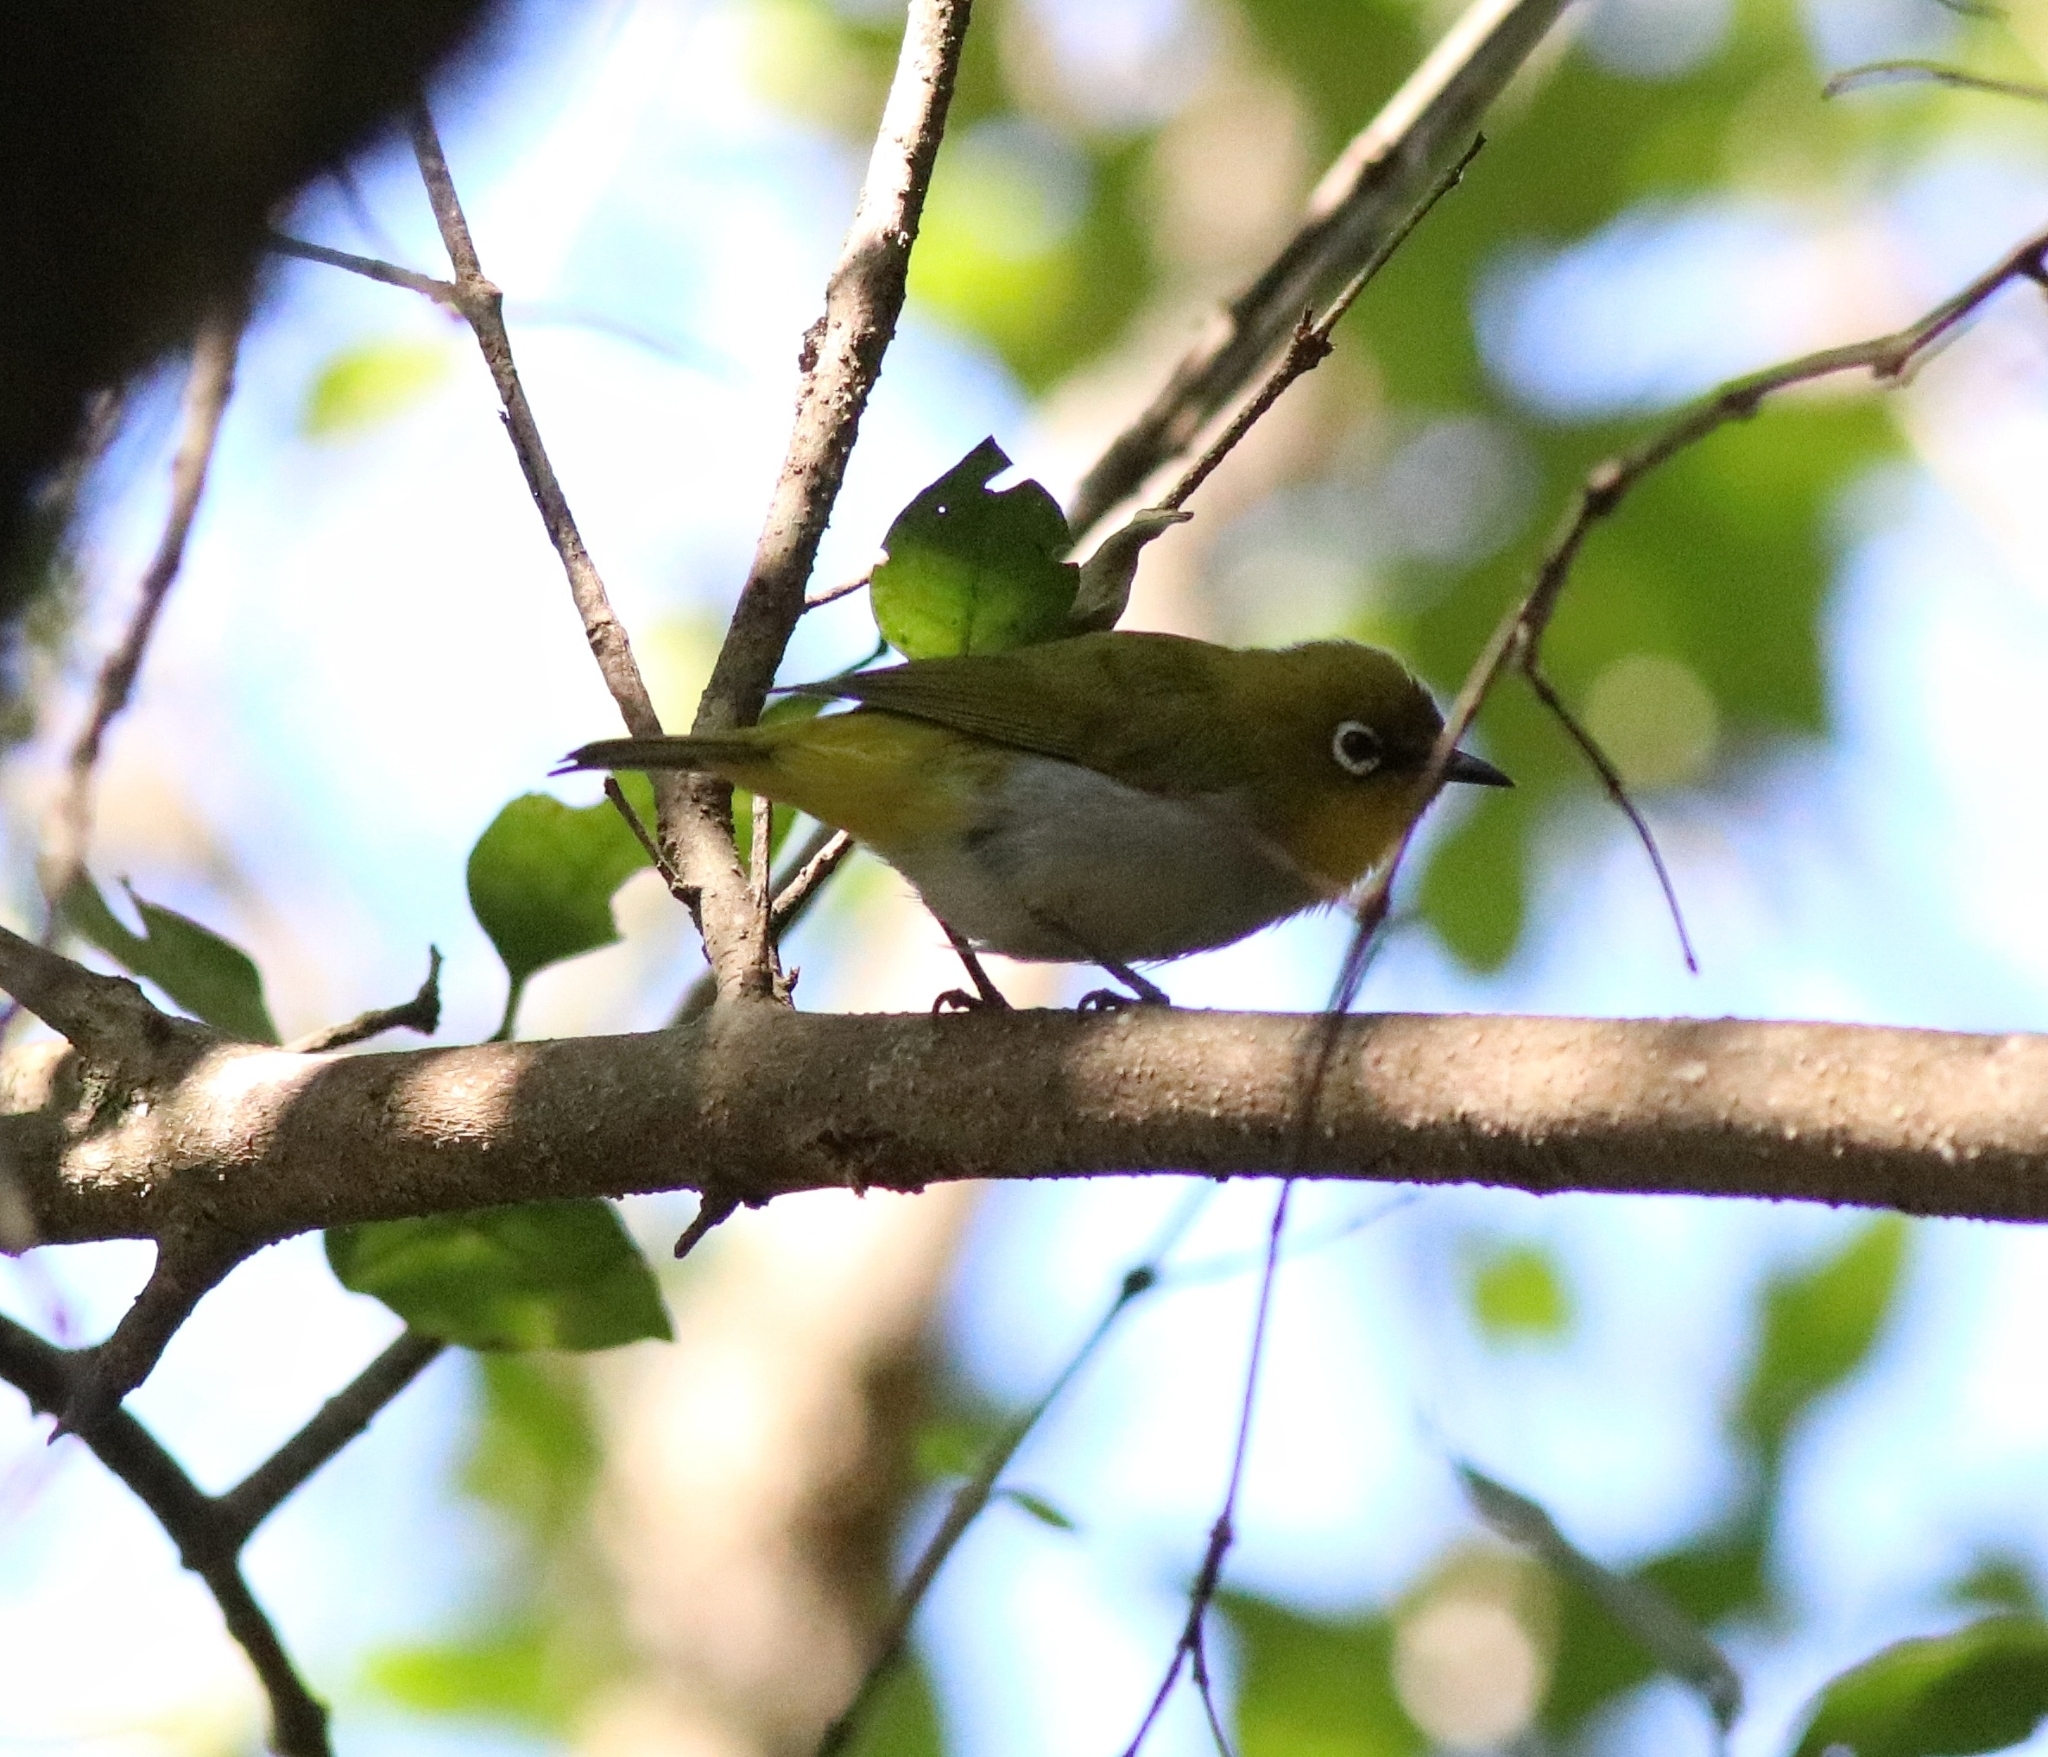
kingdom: Animalia
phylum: Chordata
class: Aves
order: Passeriformes
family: Zosteropidae
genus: Zosterops
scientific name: Zosterops palpebrosus
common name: Oriental white-eye
